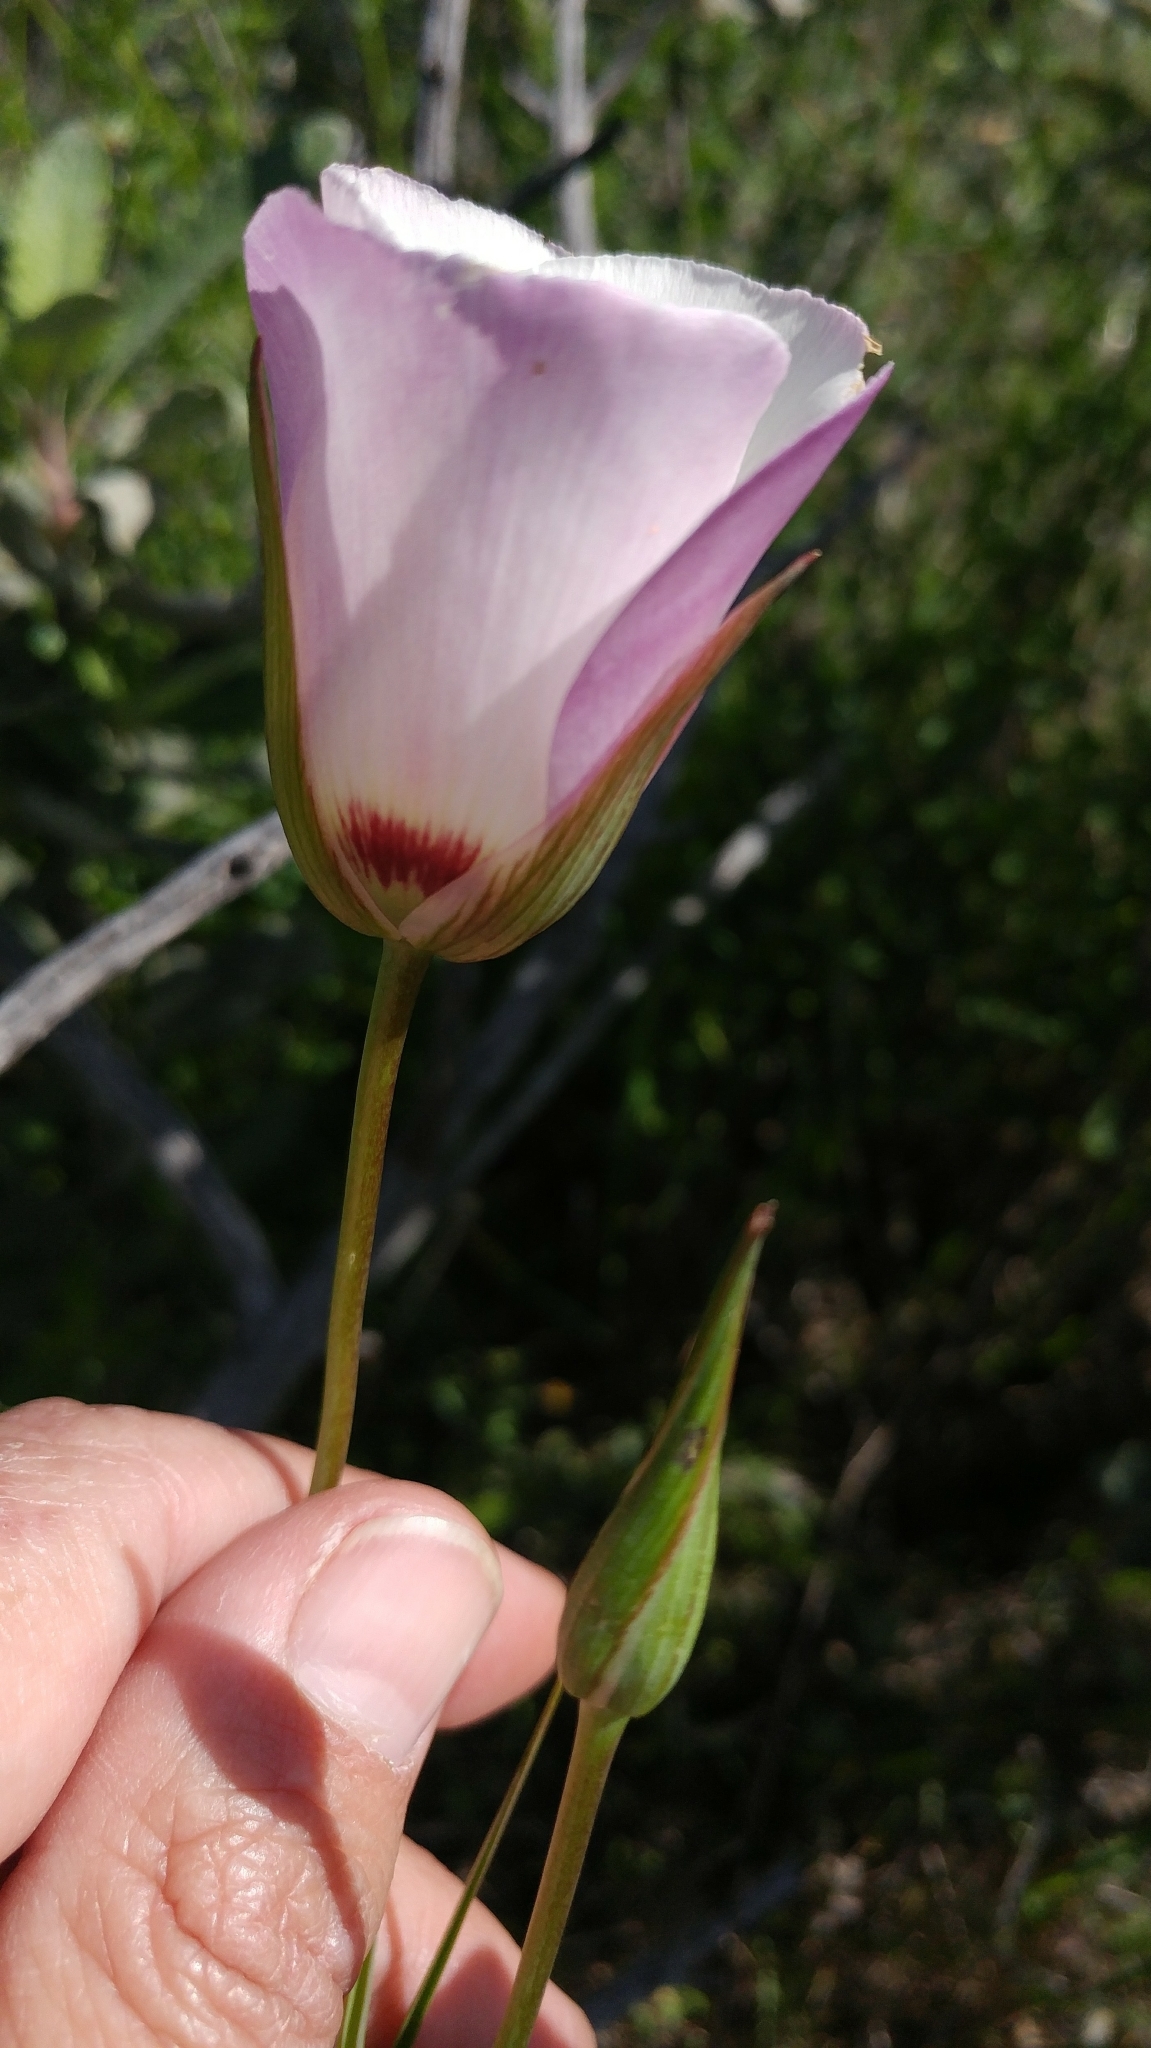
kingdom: Plantae
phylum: Tracheophyta
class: Liliopsida
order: Liliales
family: Liliaceae
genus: Calochortus
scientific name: Calochortus catalinae
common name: Catalina mariposa-lily
